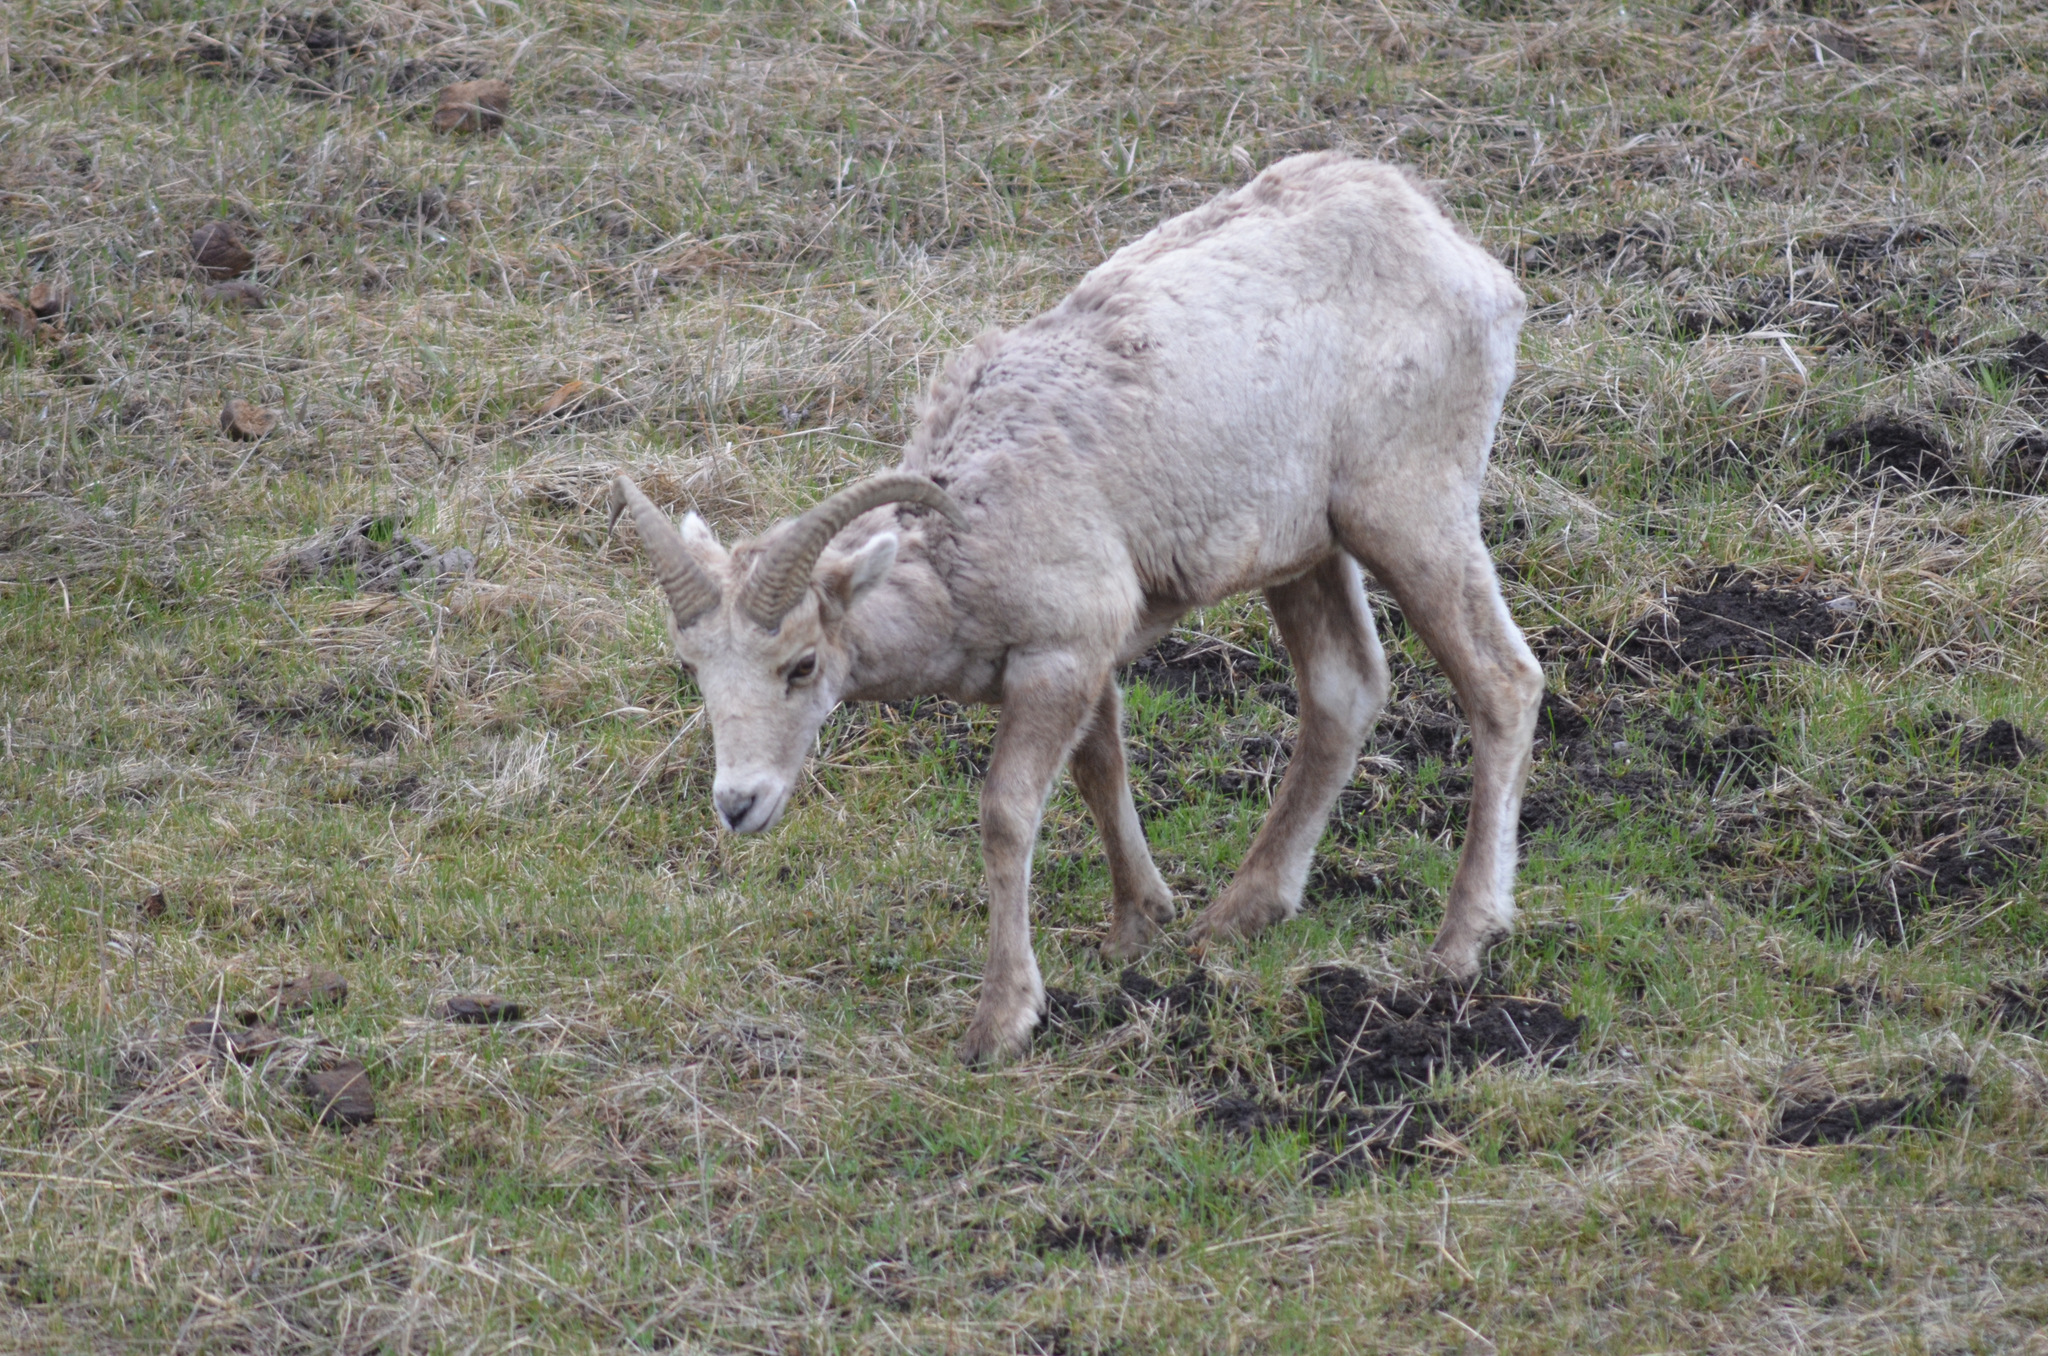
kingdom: Animalia
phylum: Chordata
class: Mammalia
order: Artiodactyla
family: Bovidae
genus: Ovis
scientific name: Ovis canadensis
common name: Bighorn sheep
